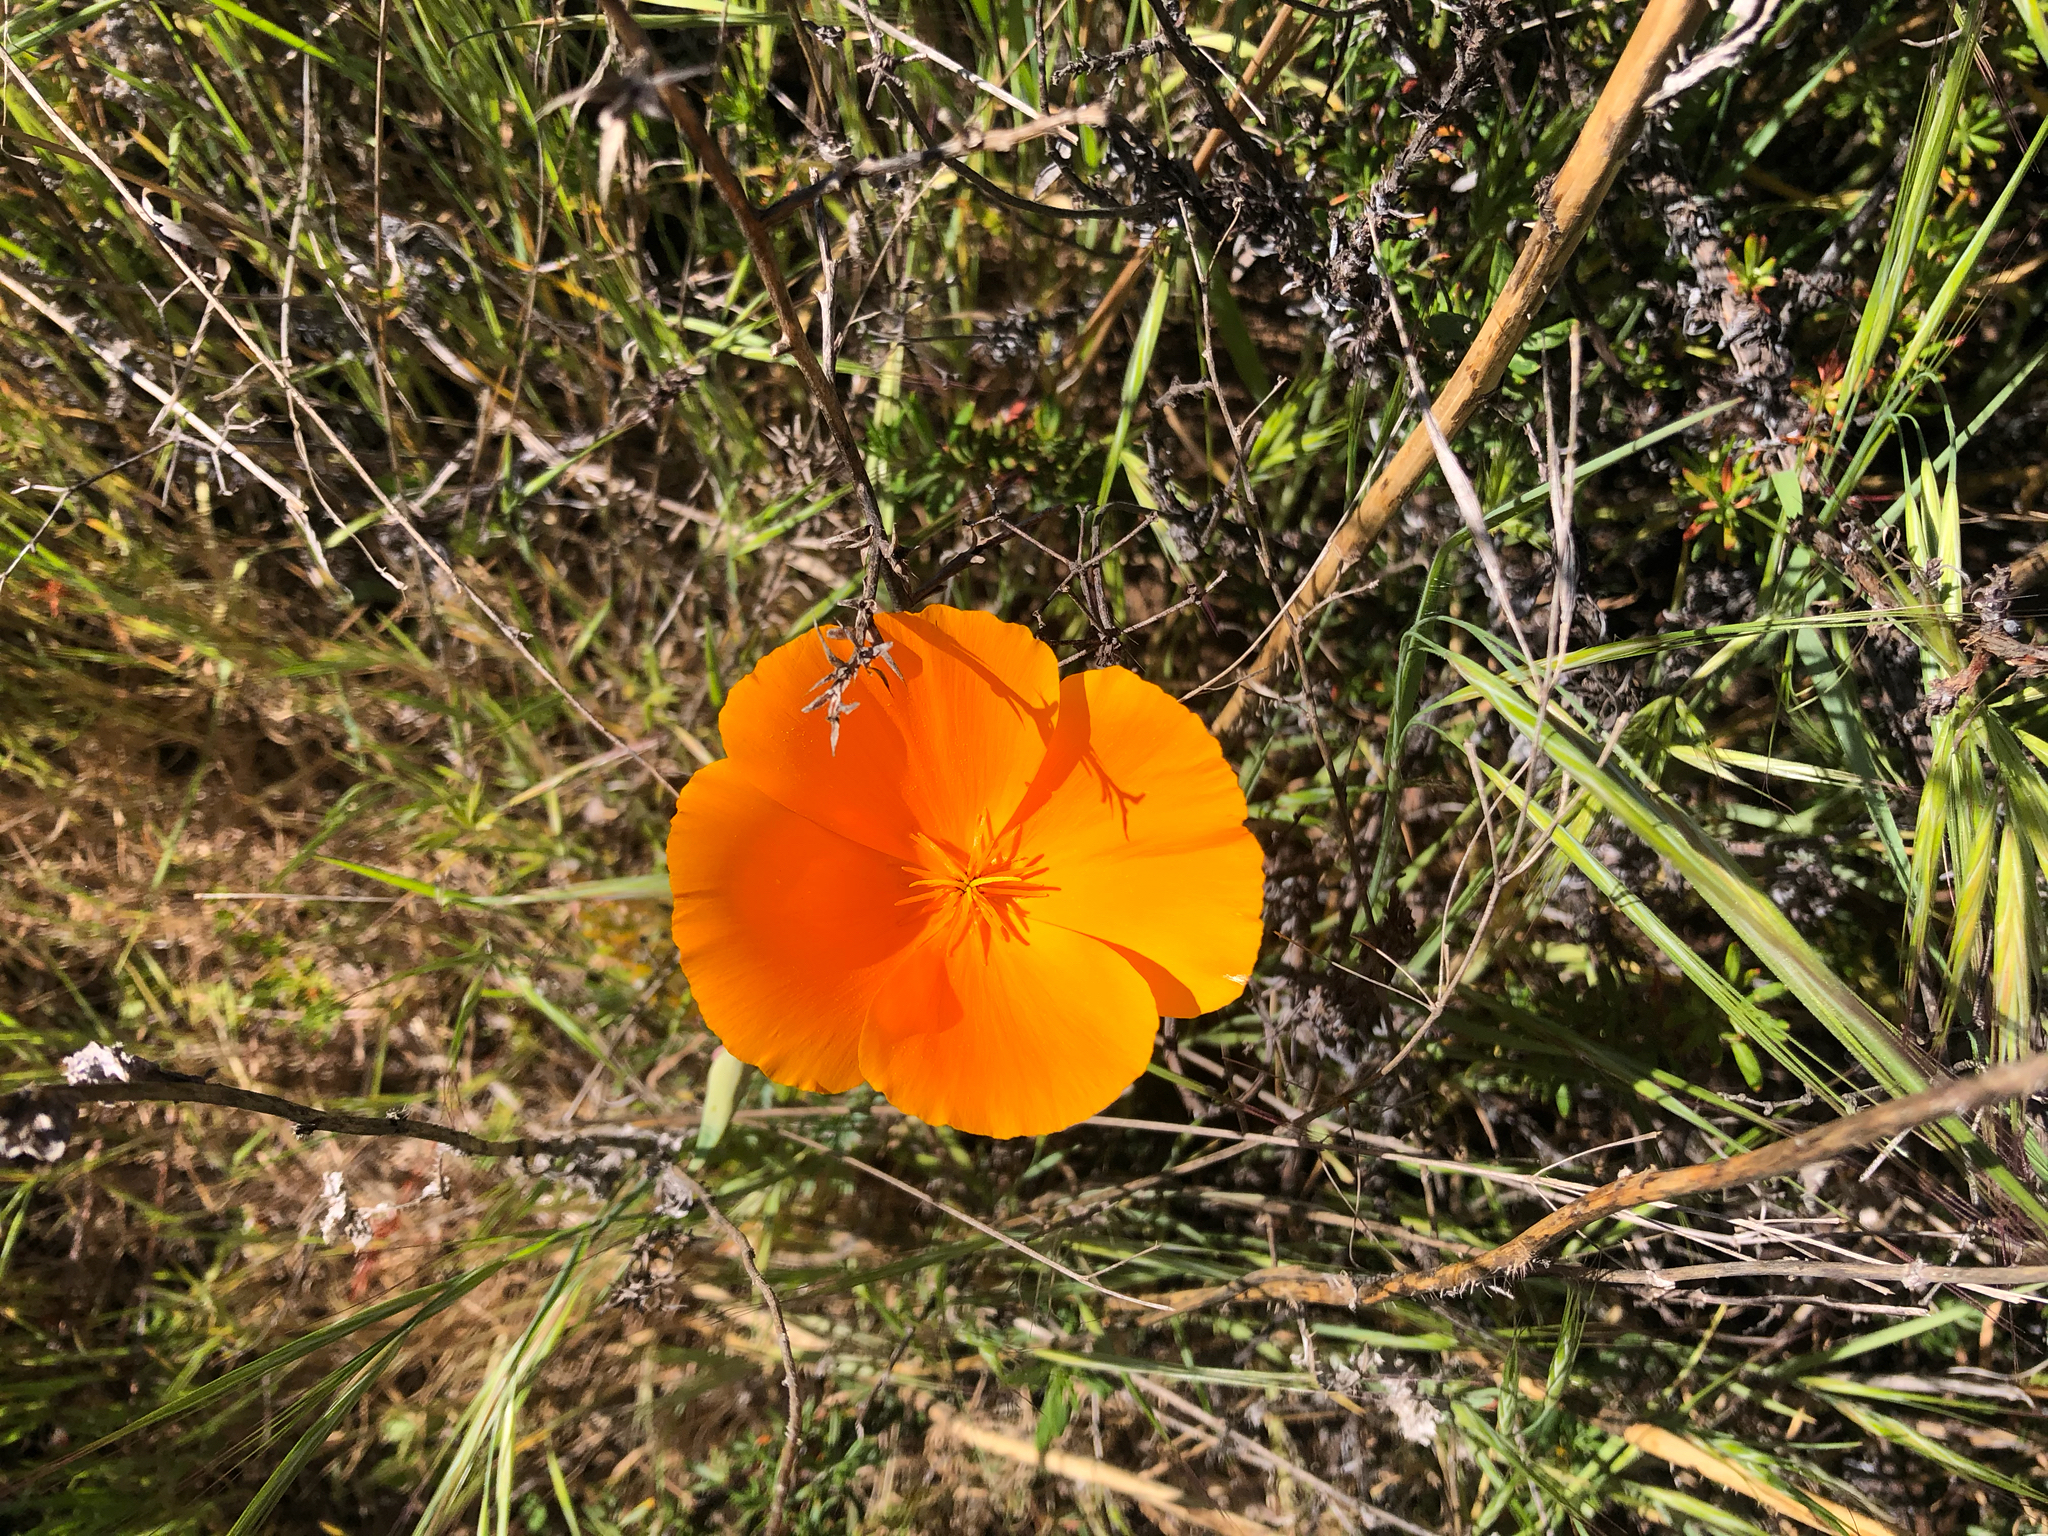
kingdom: Plantae
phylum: Tracheophyta
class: Magnoliopsida
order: Ranunculales
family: Papaveraceae
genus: Eschscholzia
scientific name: Eschscholzia californica
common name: California poppy
